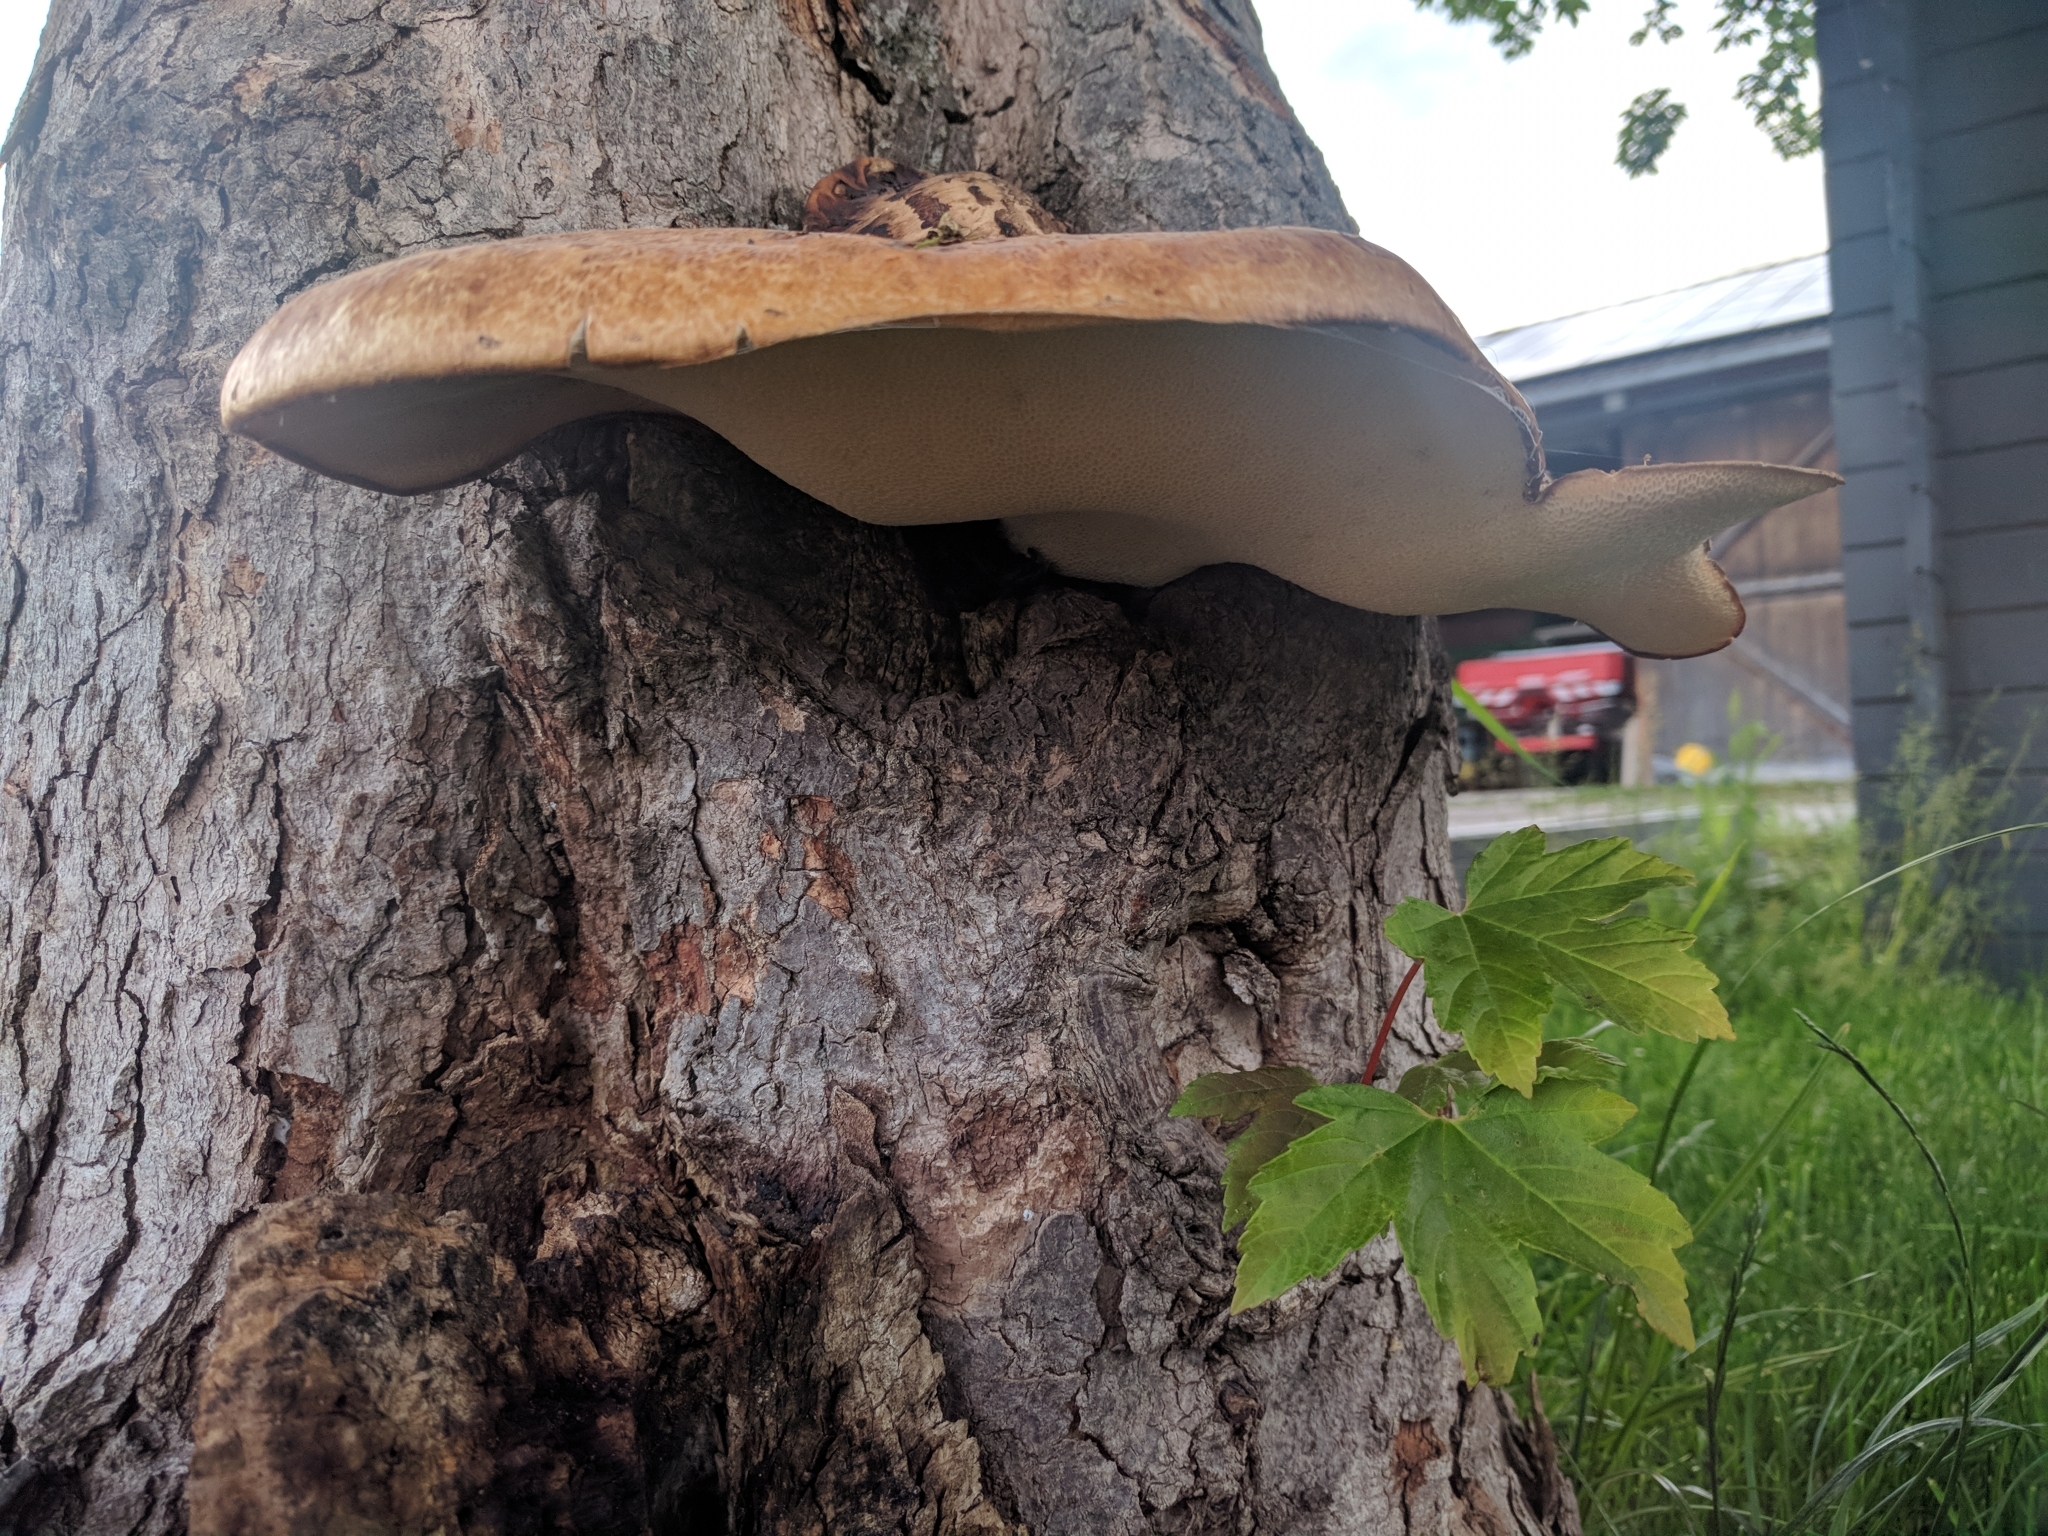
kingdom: Fungi
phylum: Basidiomycota
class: Agaricomycetes
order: Polyporales
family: Polyporaceae
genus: Cerioporus
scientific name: Cerioporus squamosus
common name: Dryad's saddle
